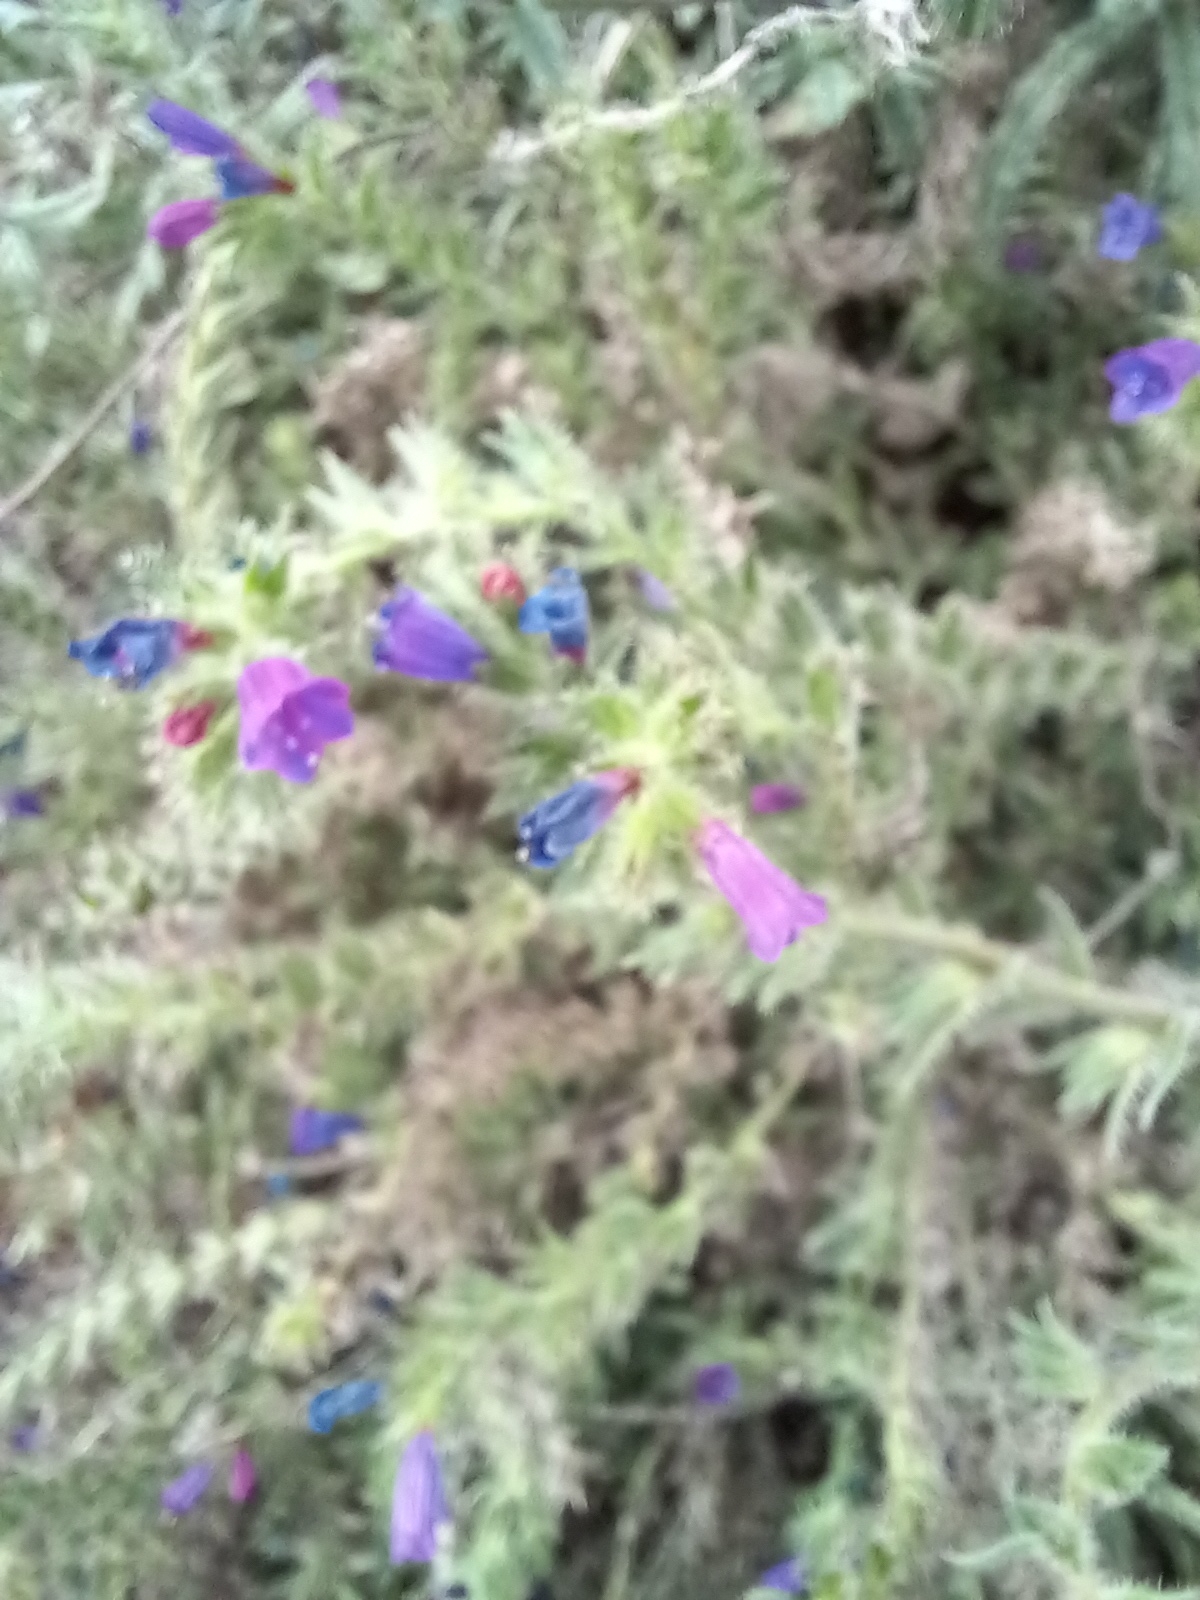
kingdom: Plantae
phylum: Tracheophyta
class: Magnoliopsida
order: Boraginales
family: Boraginaceae
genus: Echium
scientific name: Echium sabulicola
